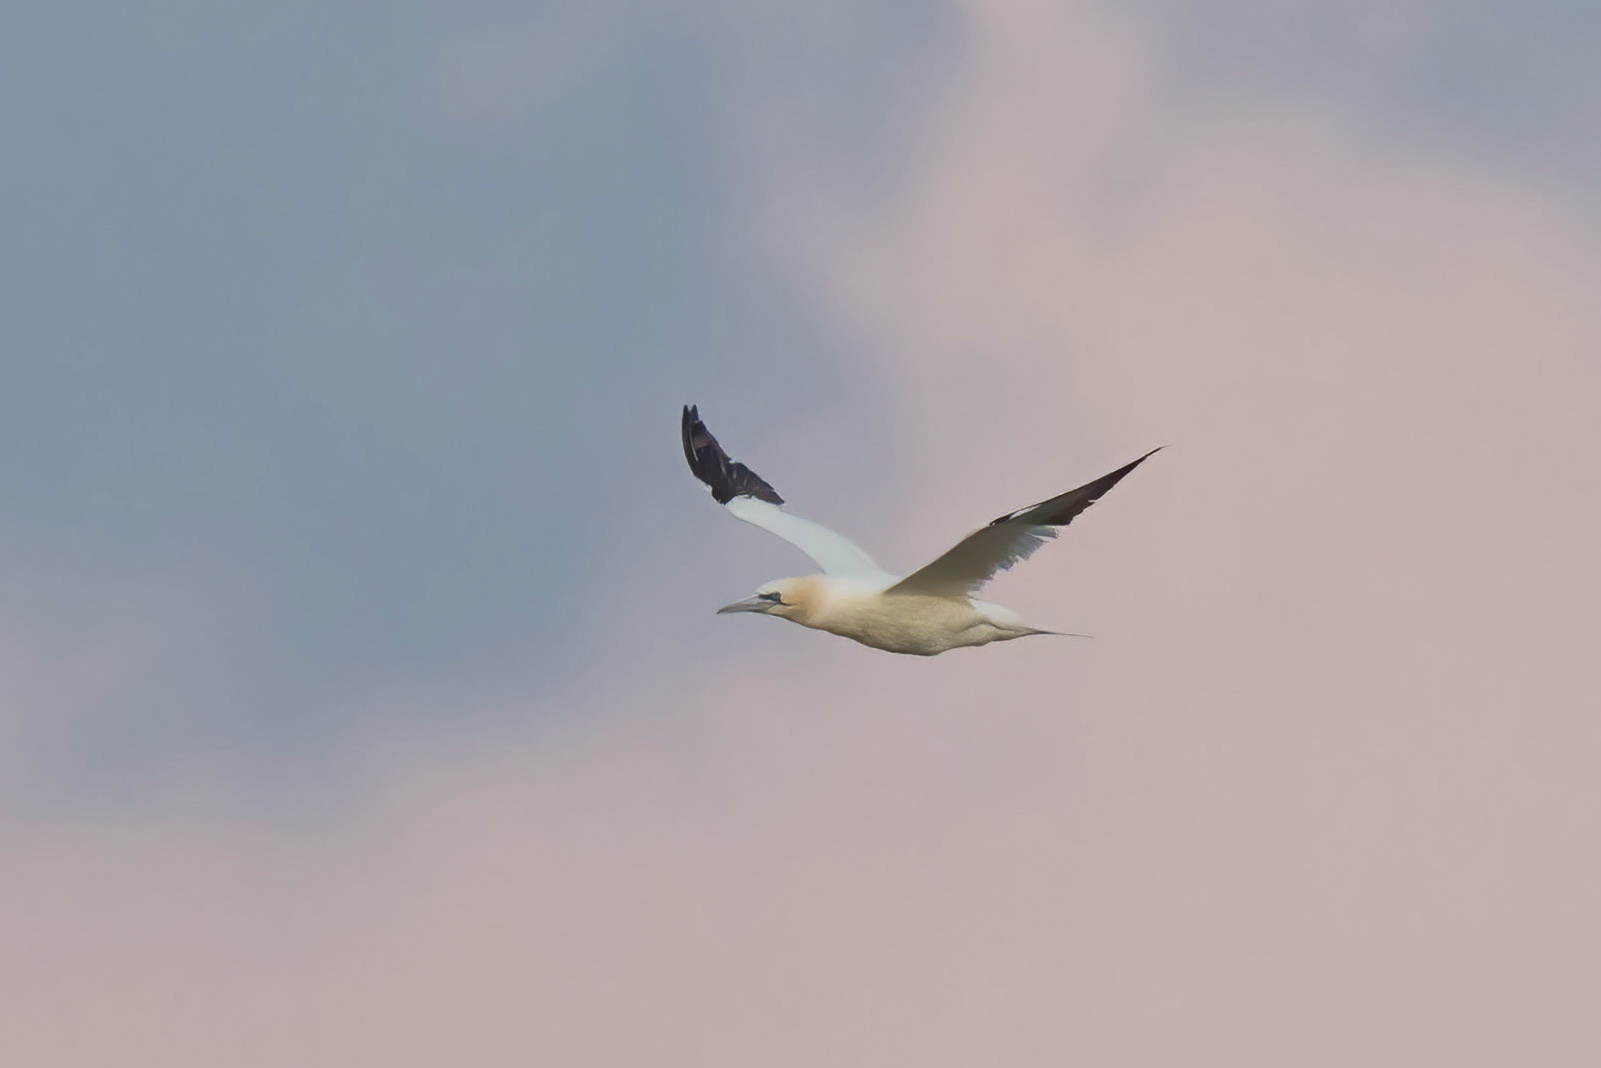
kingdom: Animalia
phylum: Chordata
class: Aves
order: Suliformes
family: Sulidae
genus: Morus
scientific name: Morus bassanus
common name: Northern gannet
